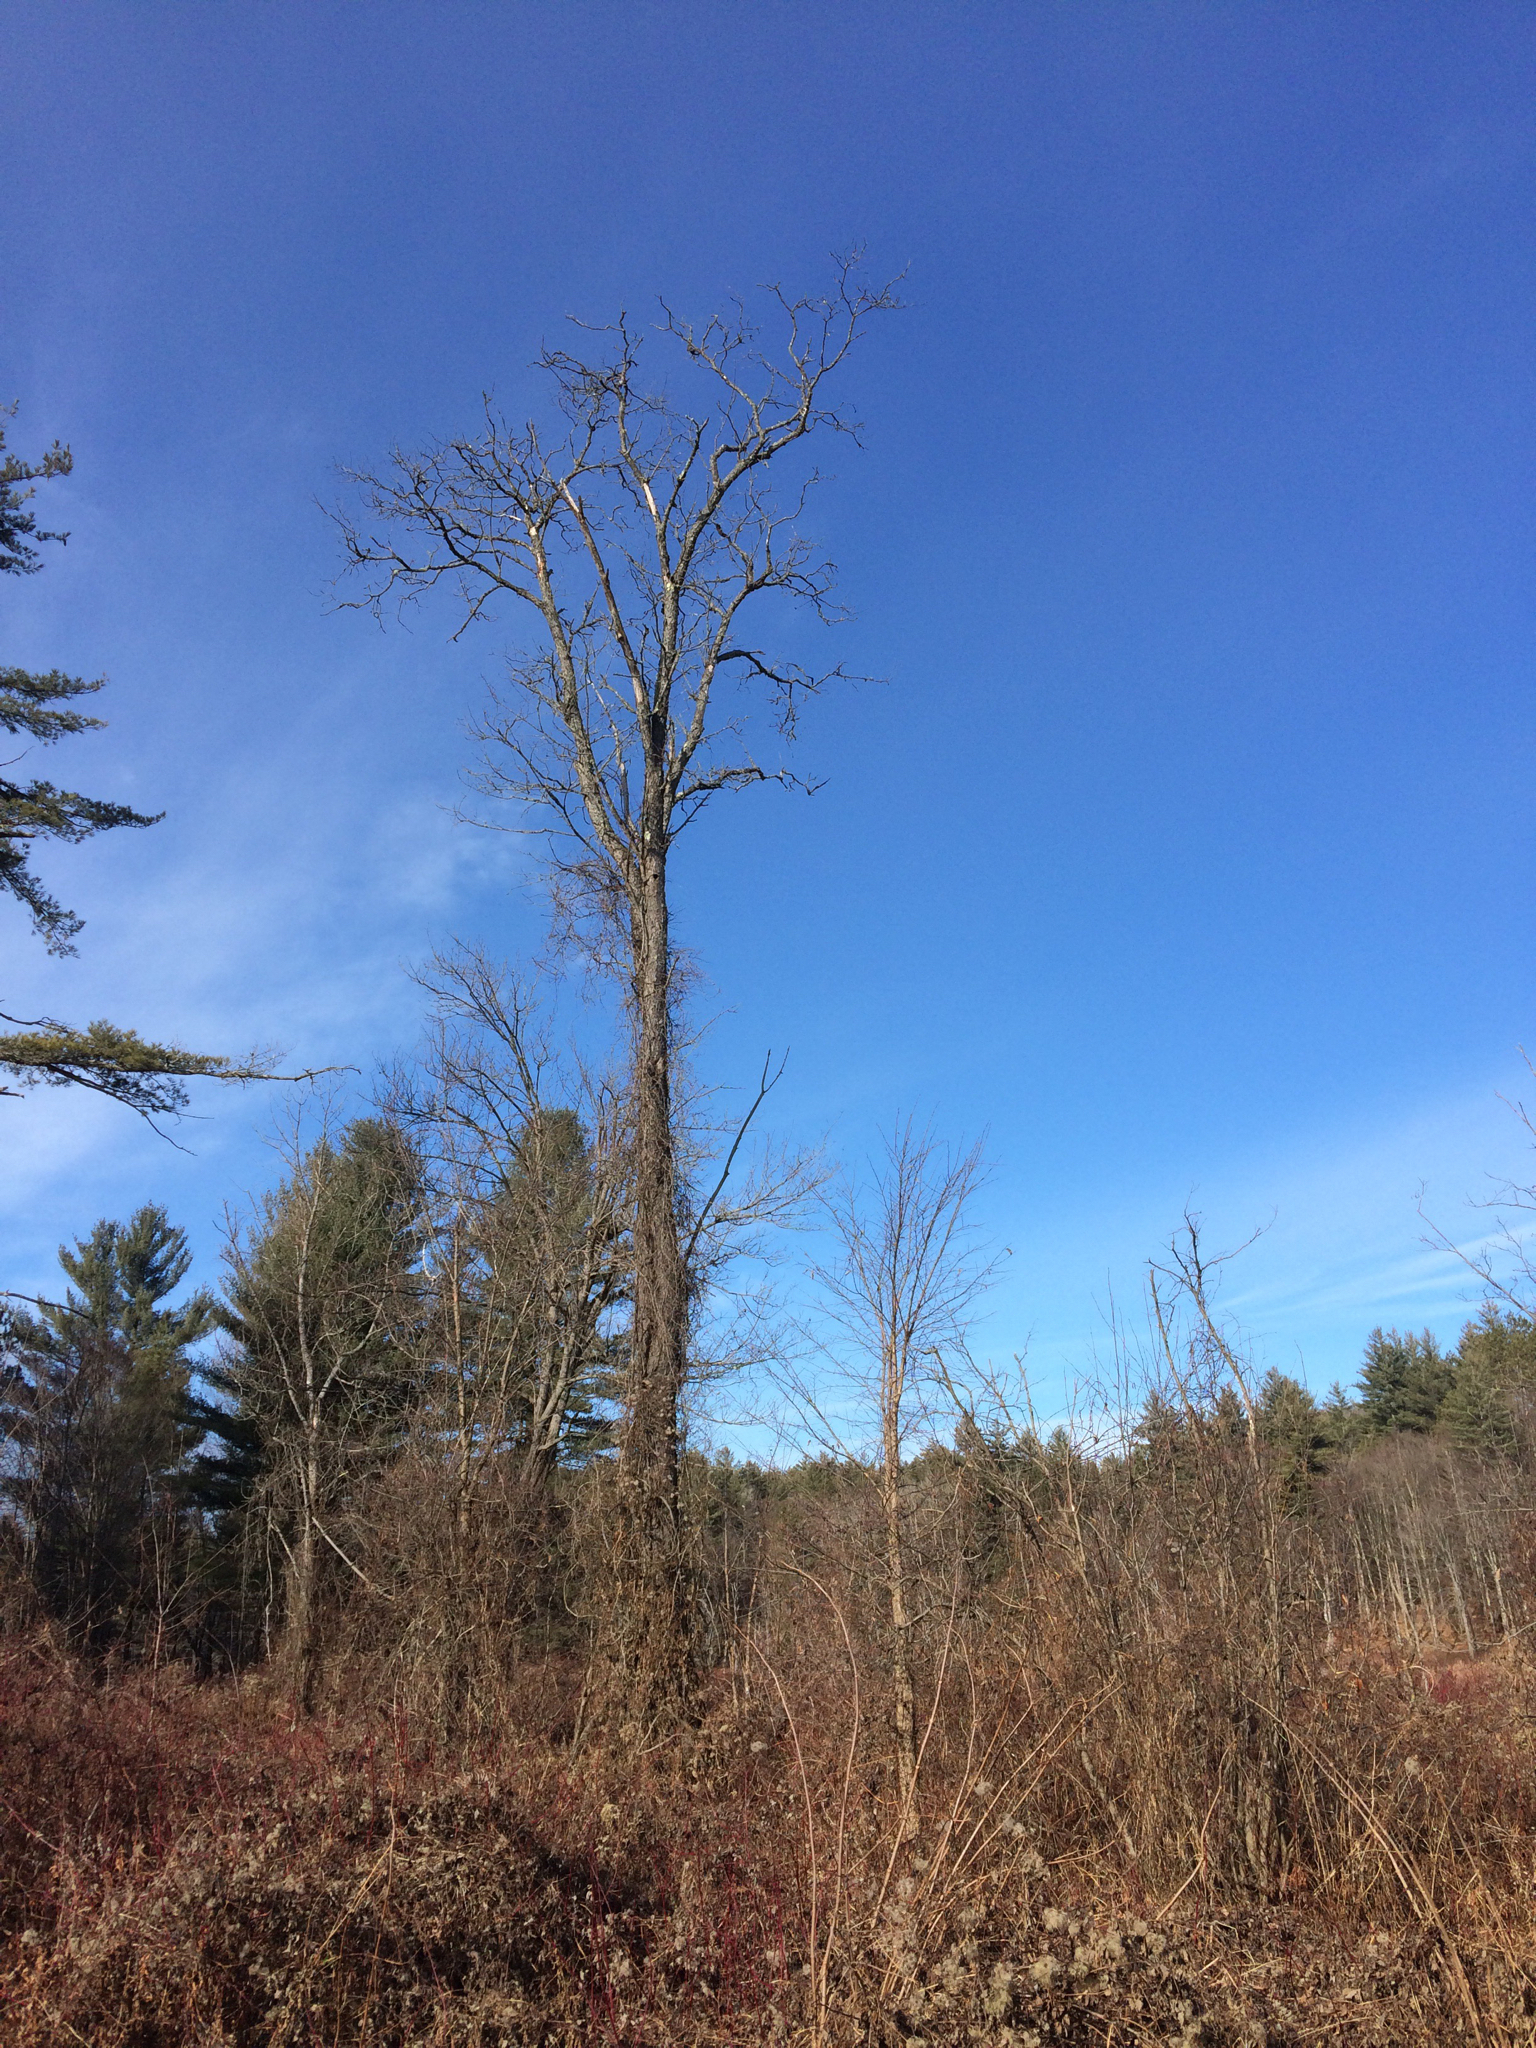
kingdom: Plantae
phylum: Tracheophyta
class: Magnoliopsida
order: Rosales
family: Ulmaceae
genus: Ulmus
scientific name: Ulmus americana
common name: American elm
